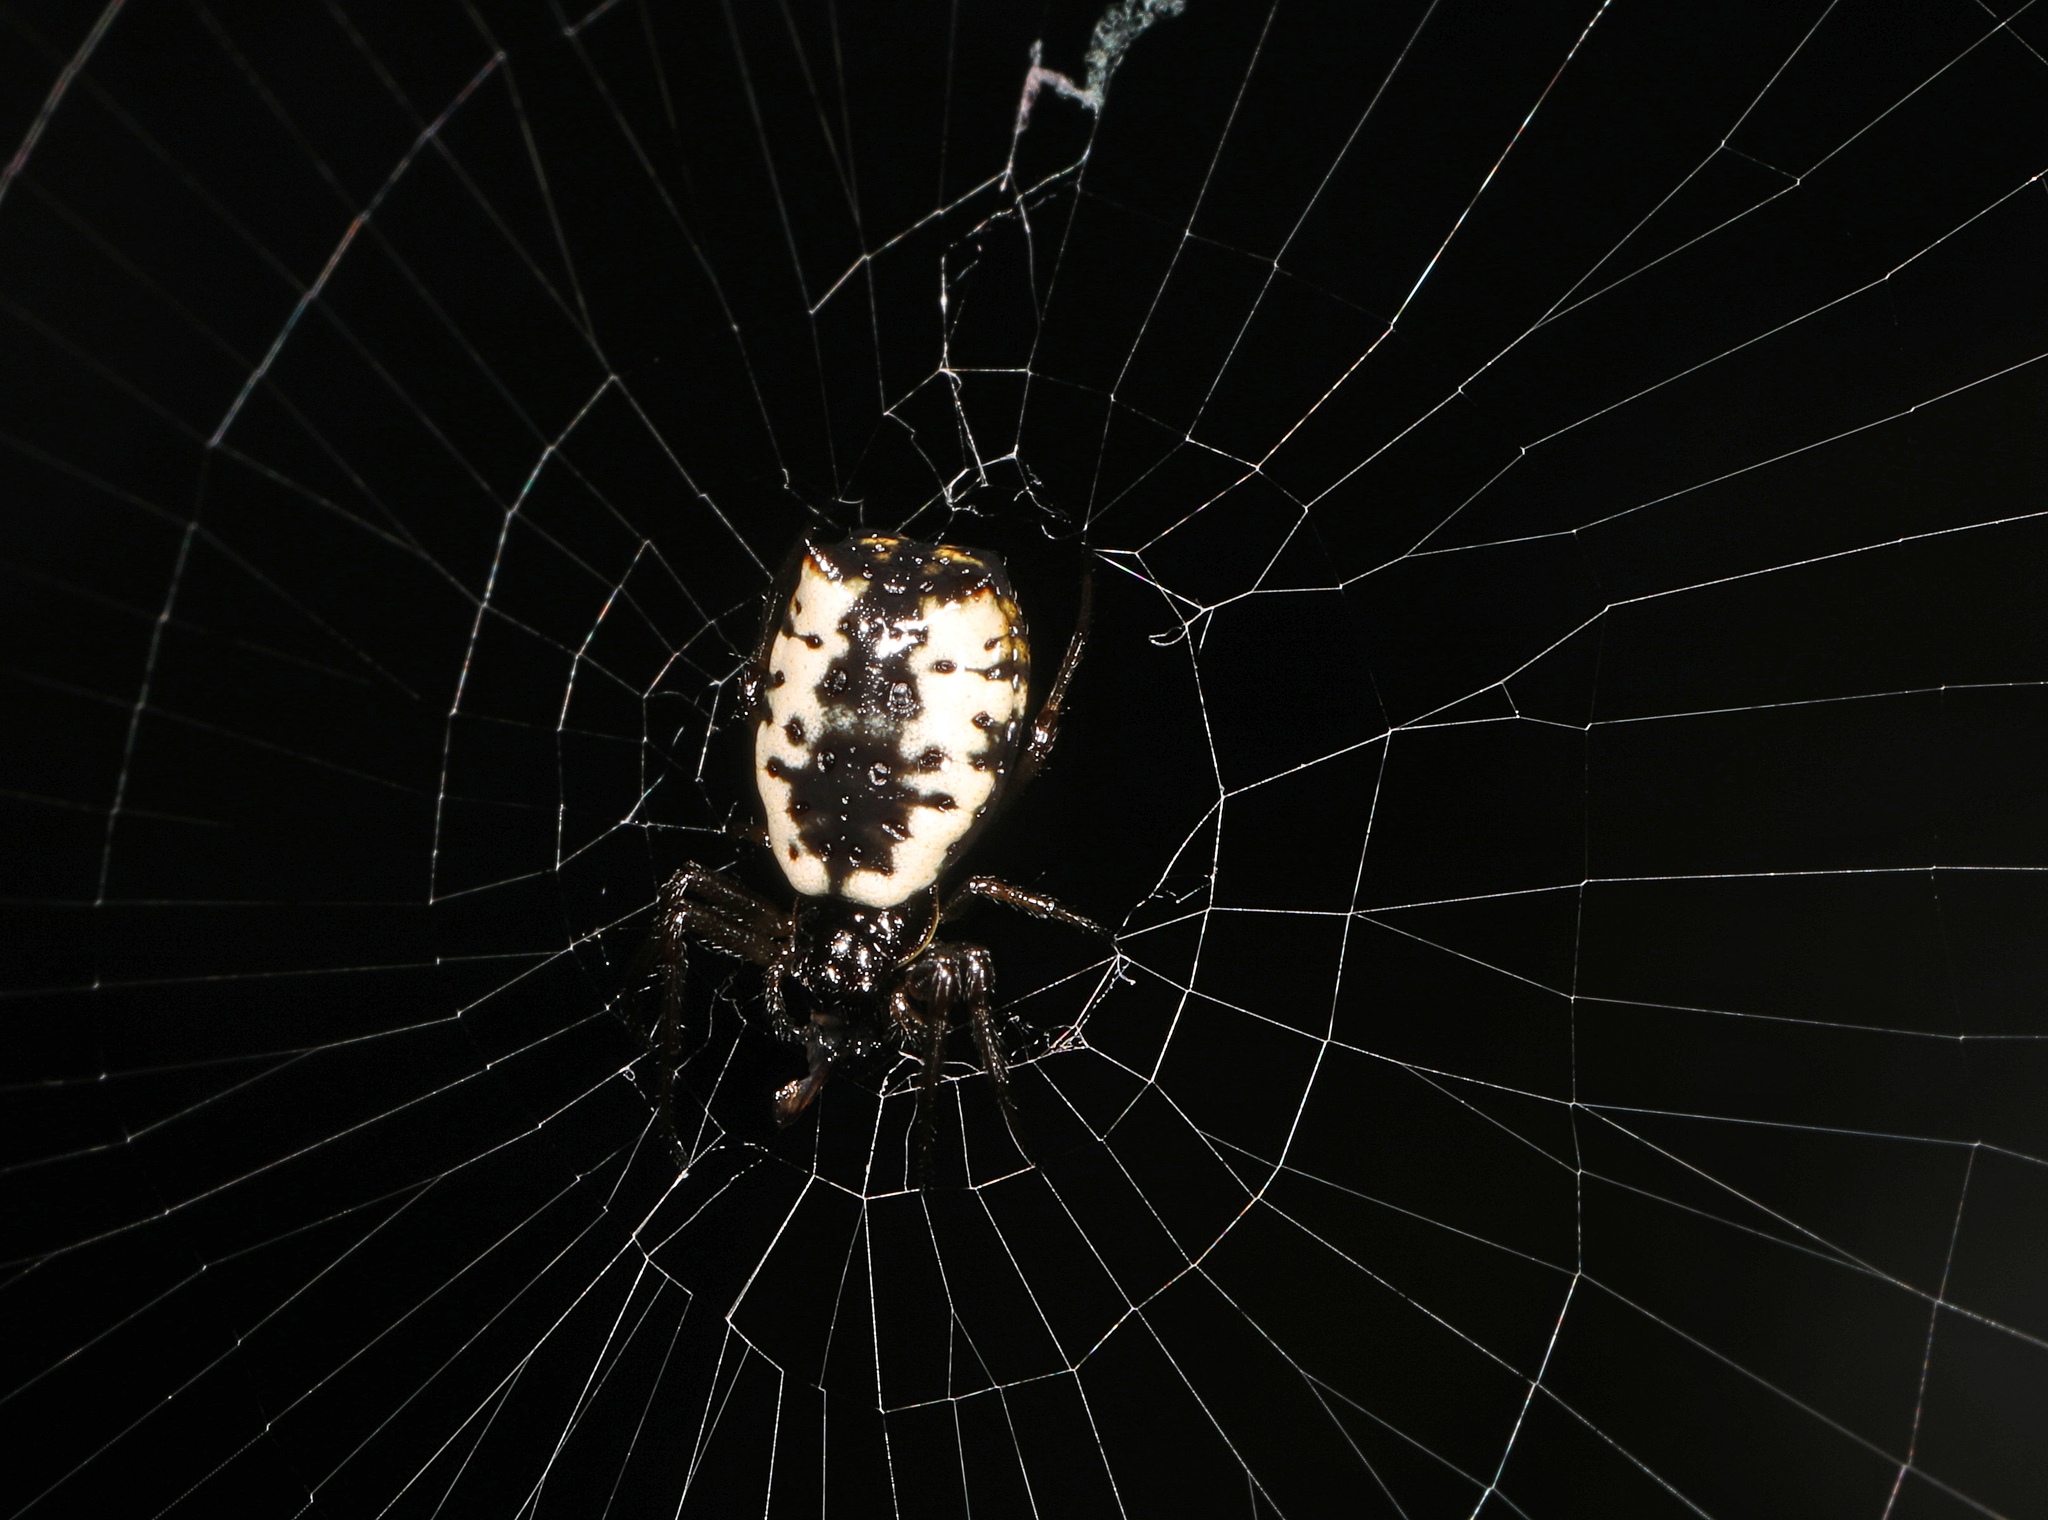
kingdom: Animalia
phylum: Arthropoda
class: Arachnida
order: Araneae
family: Araneidae
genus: Micrathena
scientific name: Micrathena mitrata
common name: Orb weavers
